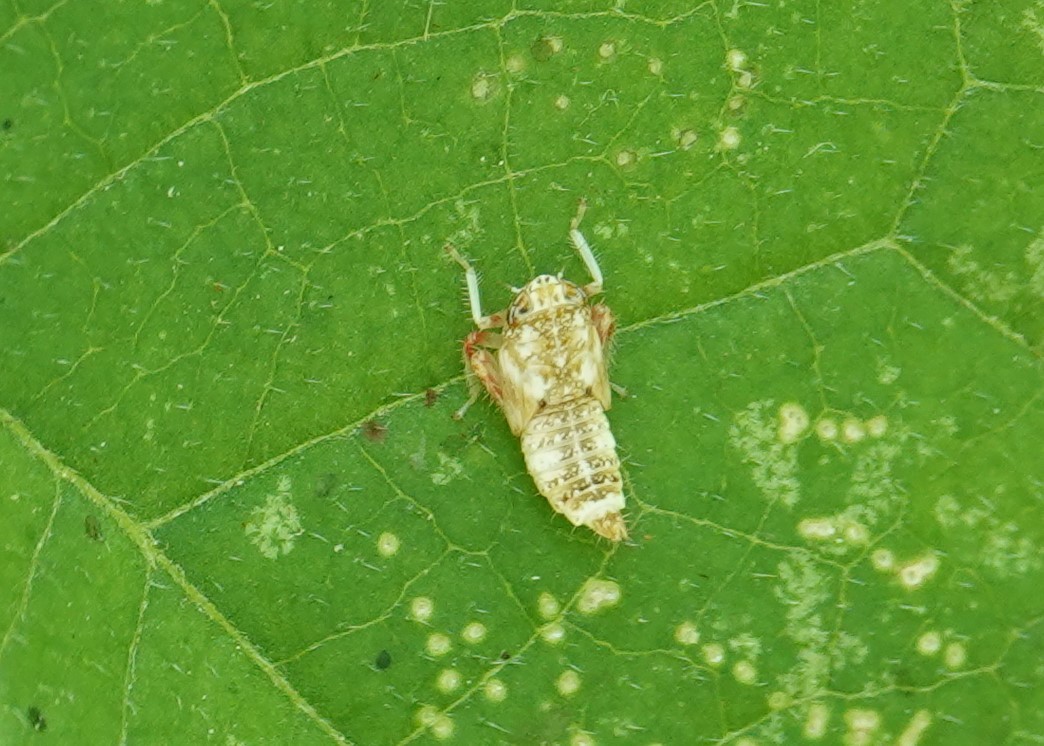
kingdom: Animalia
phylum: Arthropoda
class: Insecta
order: Hemiptera
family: Cicadellidae
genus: Orientus
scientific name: Orientus ishidae
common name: Japanese leafhopper
